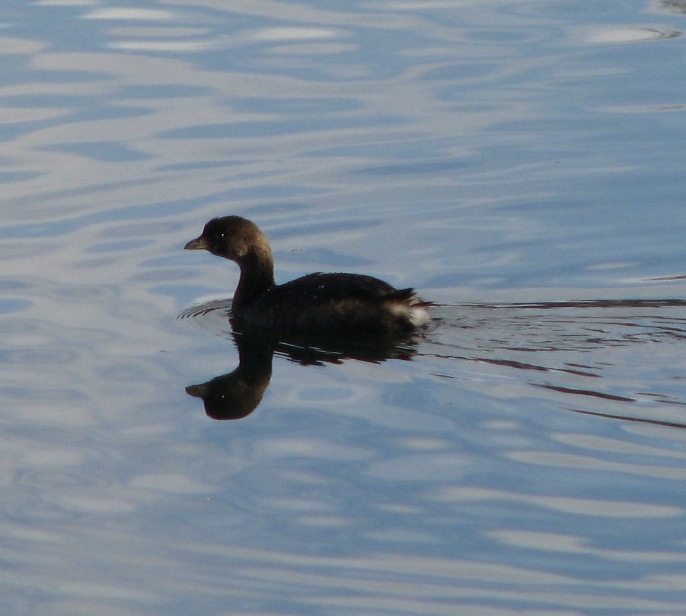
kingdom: Animalia
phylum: Chordata
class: Aves
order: Podicipediformes
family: Podicipedidae
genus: Podilymbus
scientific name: Podilymbus podiceps
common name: Pied-billed grebe
